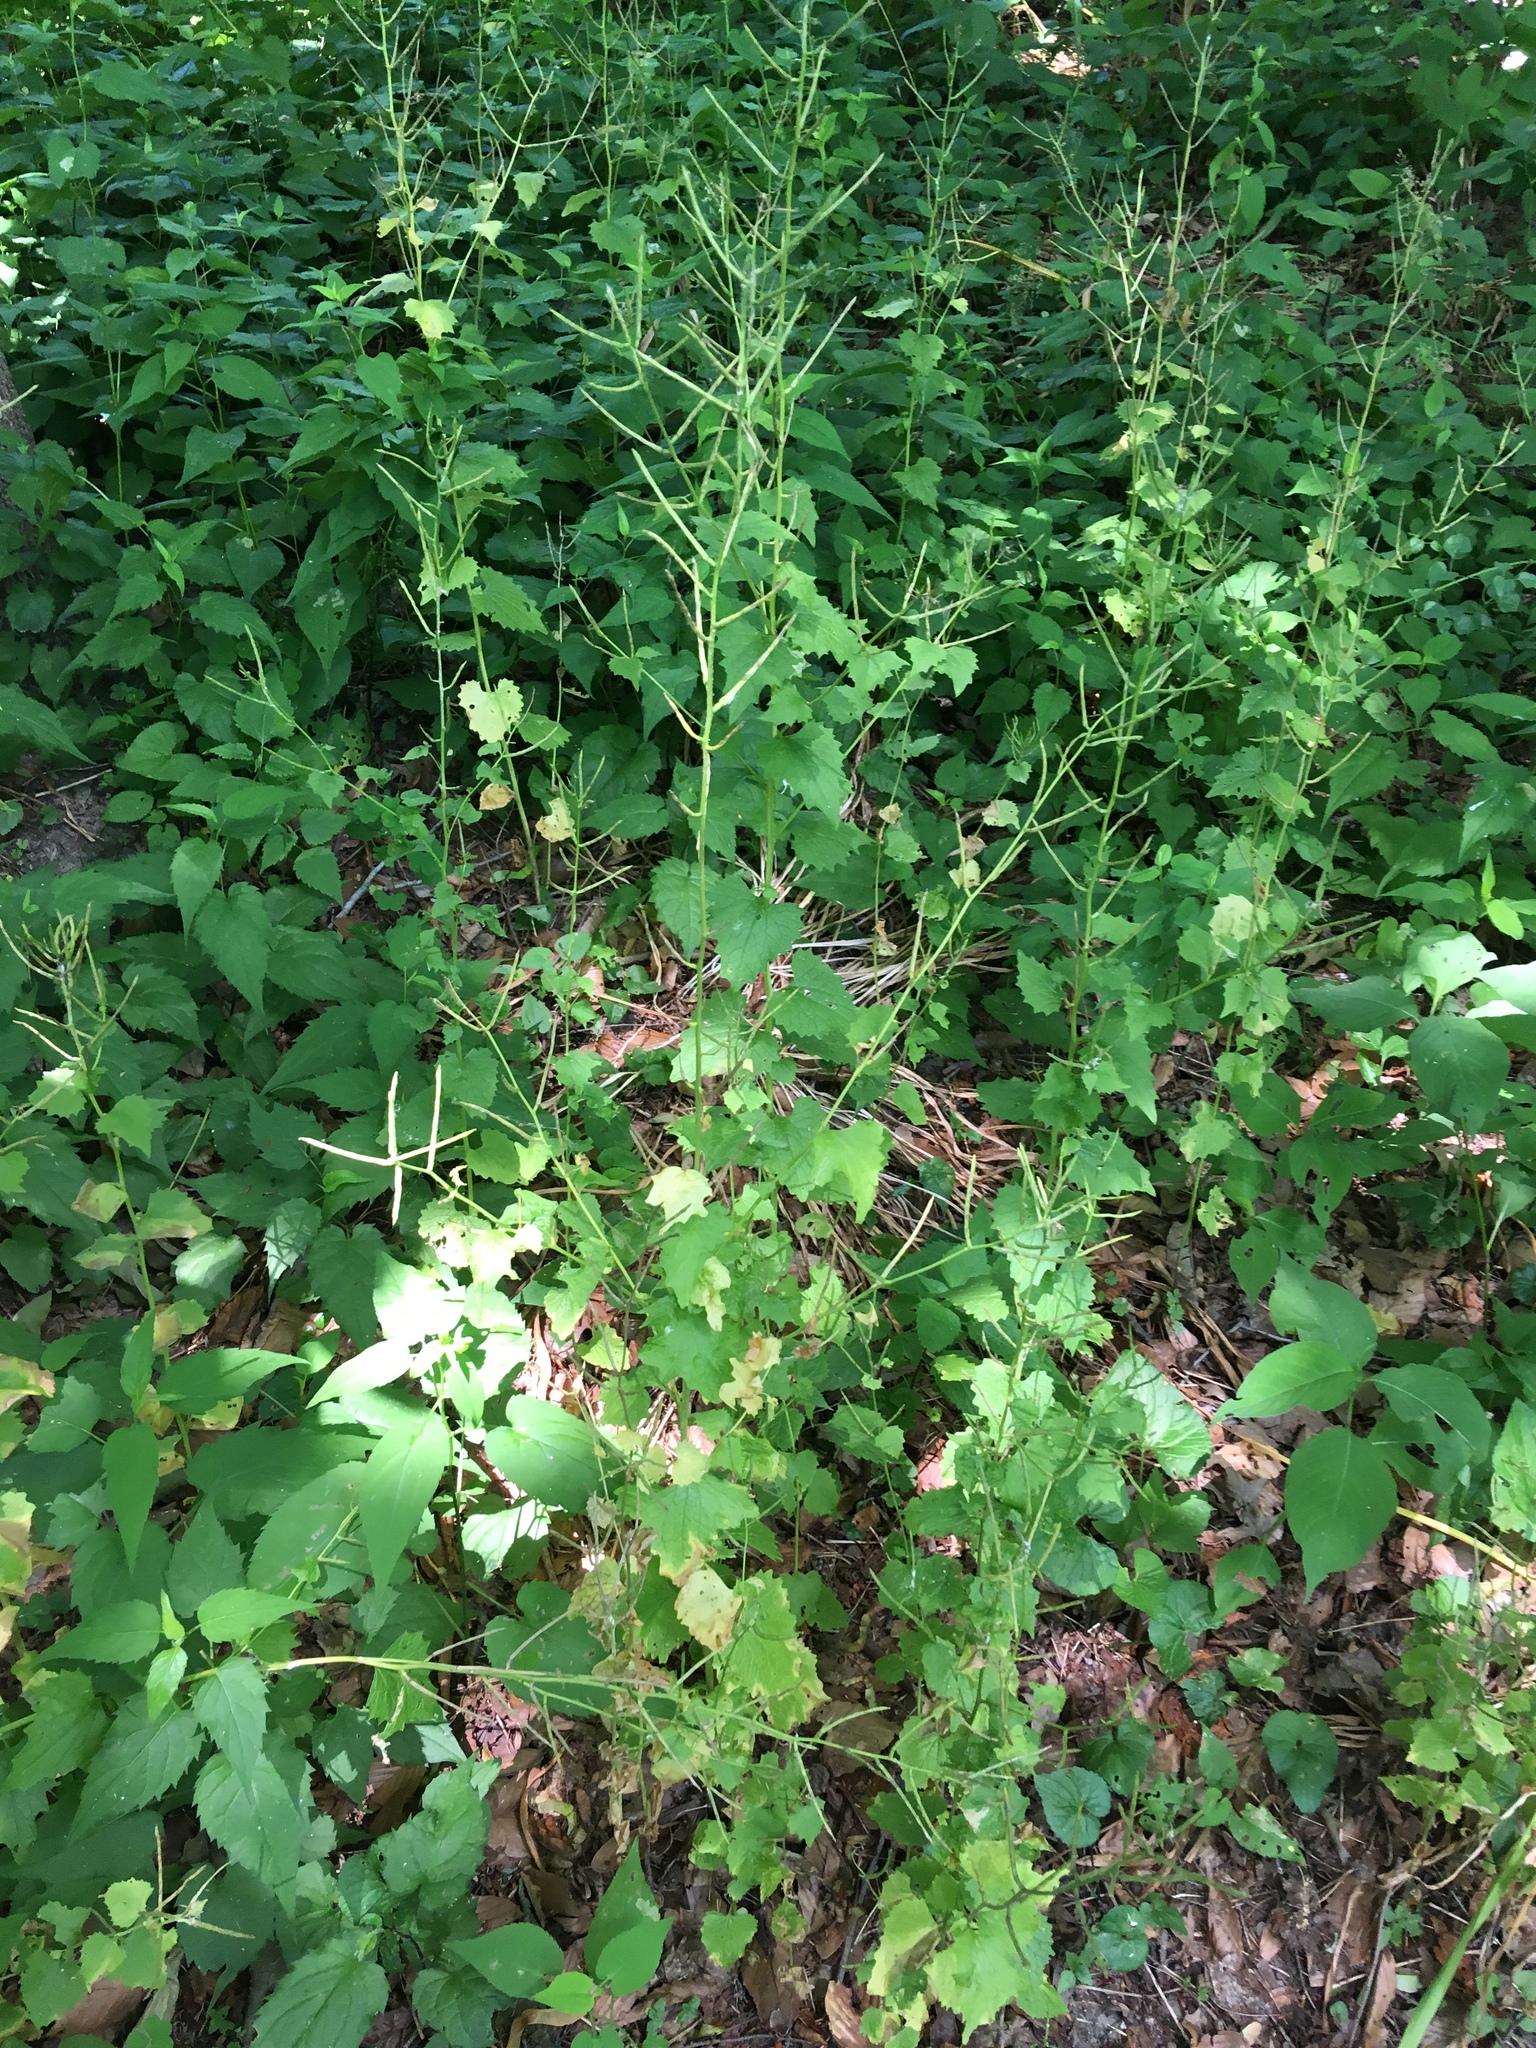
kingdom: Plantae
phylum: Tracheophyta
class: Magnoliopsida
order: Brassicales
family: Brassicaceae
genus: Alliaria
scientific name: Alliaria petiolata
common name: Garlic mustard
